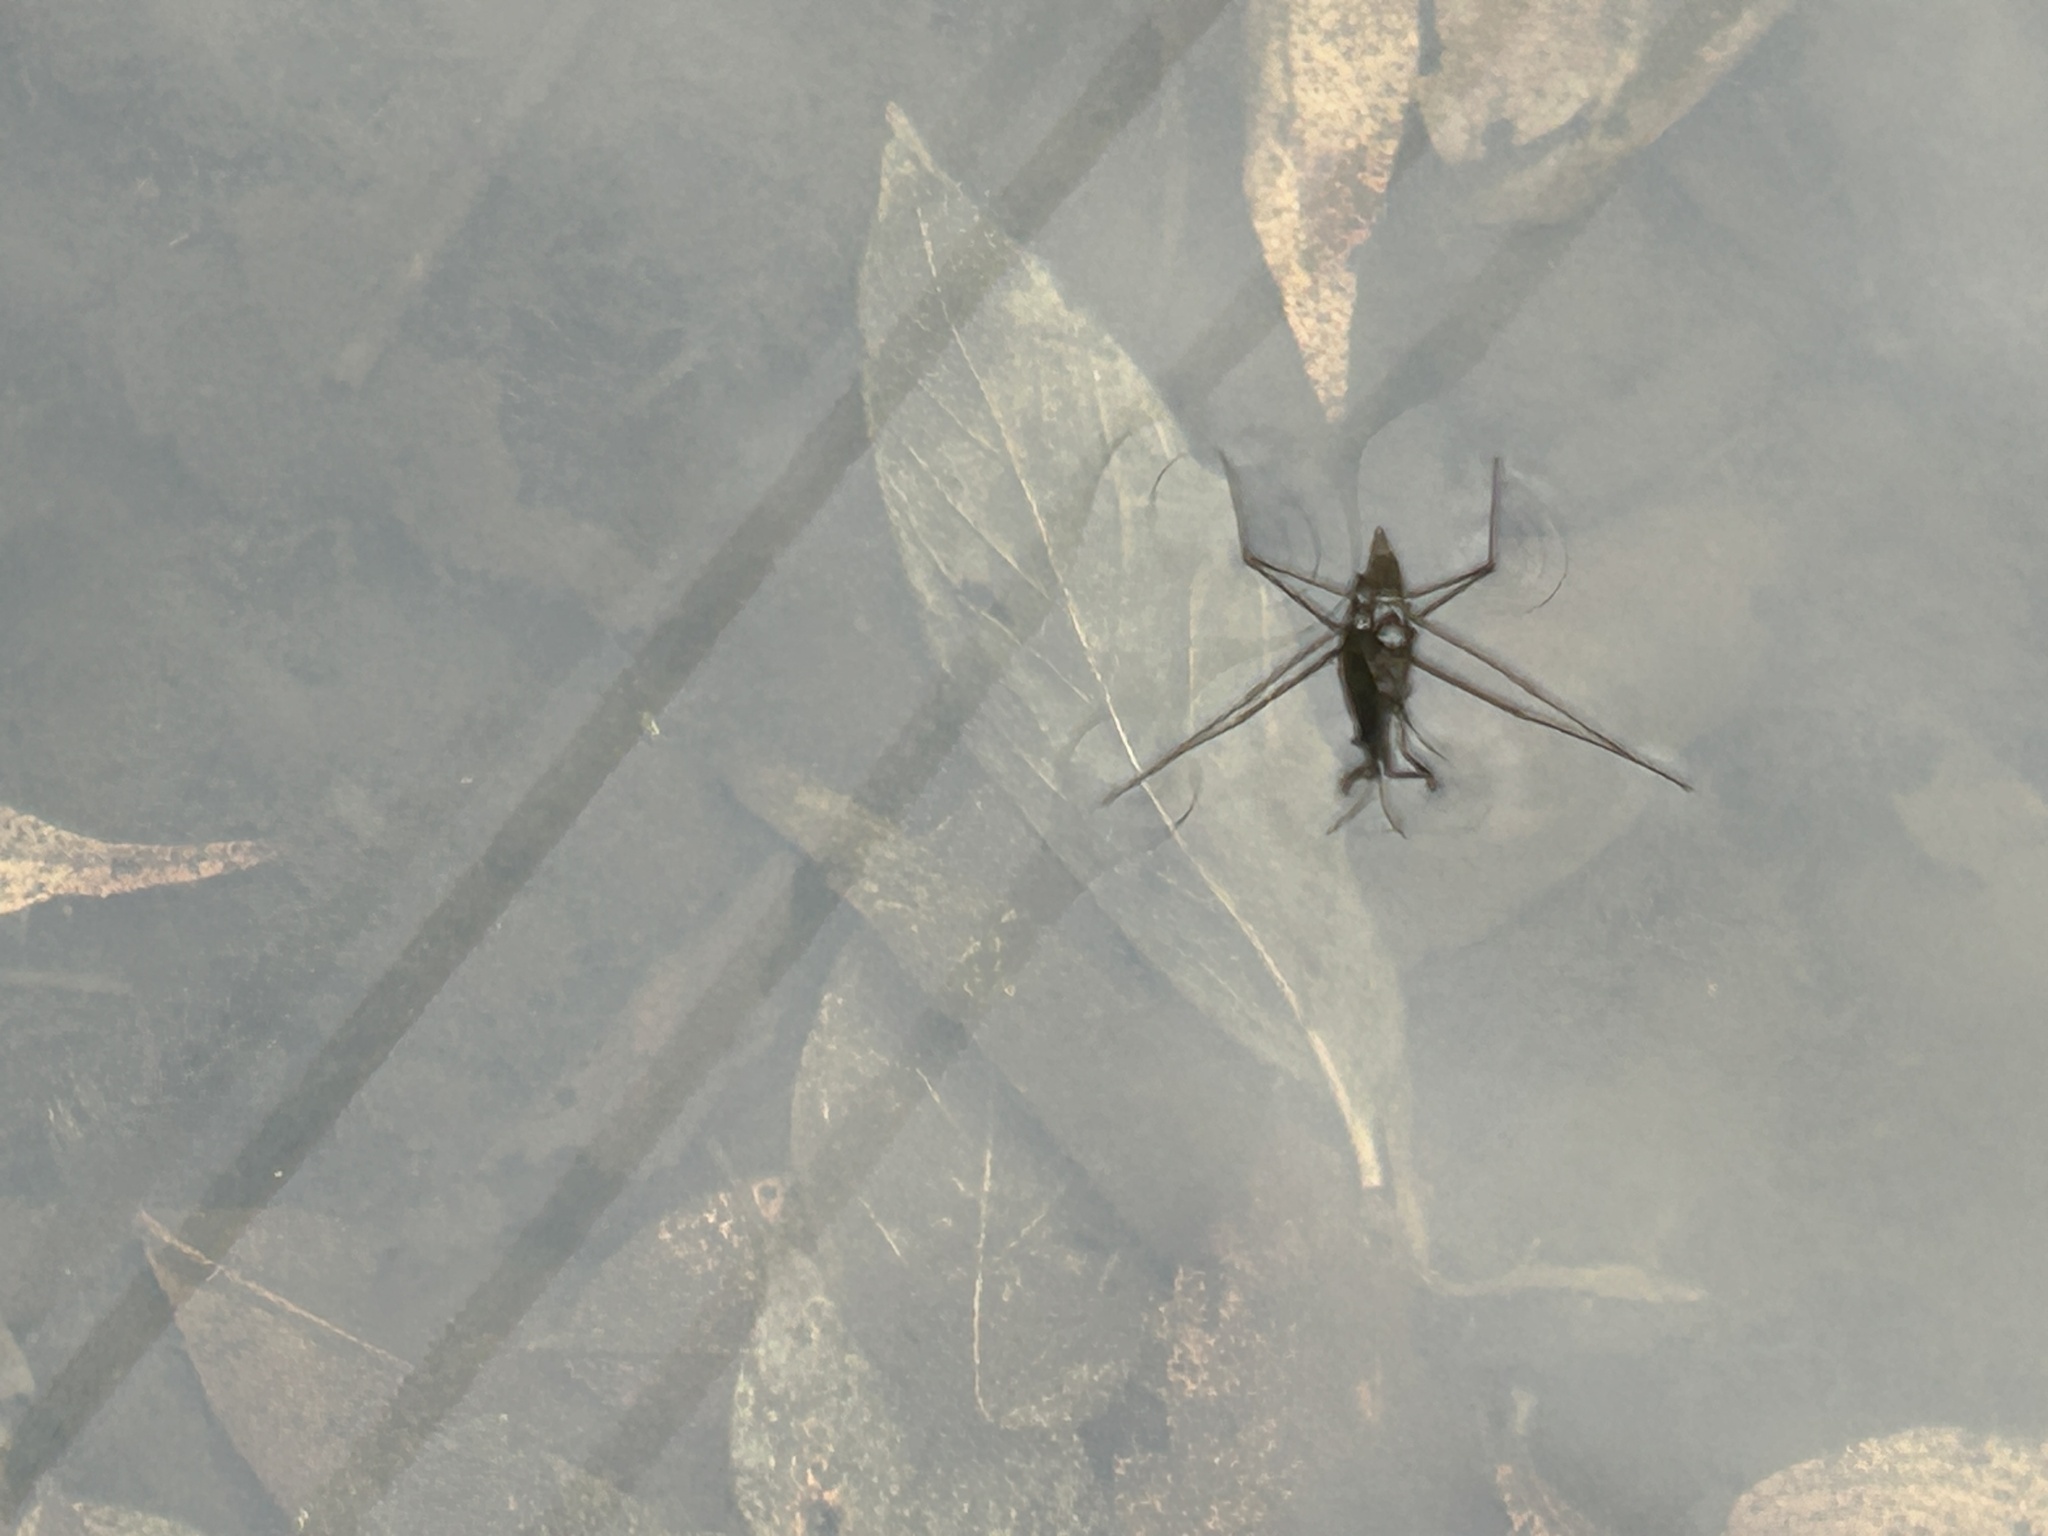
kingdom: Animalia
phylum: Arthropoda
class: Insecta
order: Hemiptera
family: Gerridae
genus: Aquarius
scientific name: Aquarius remigis
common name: Common water strider
